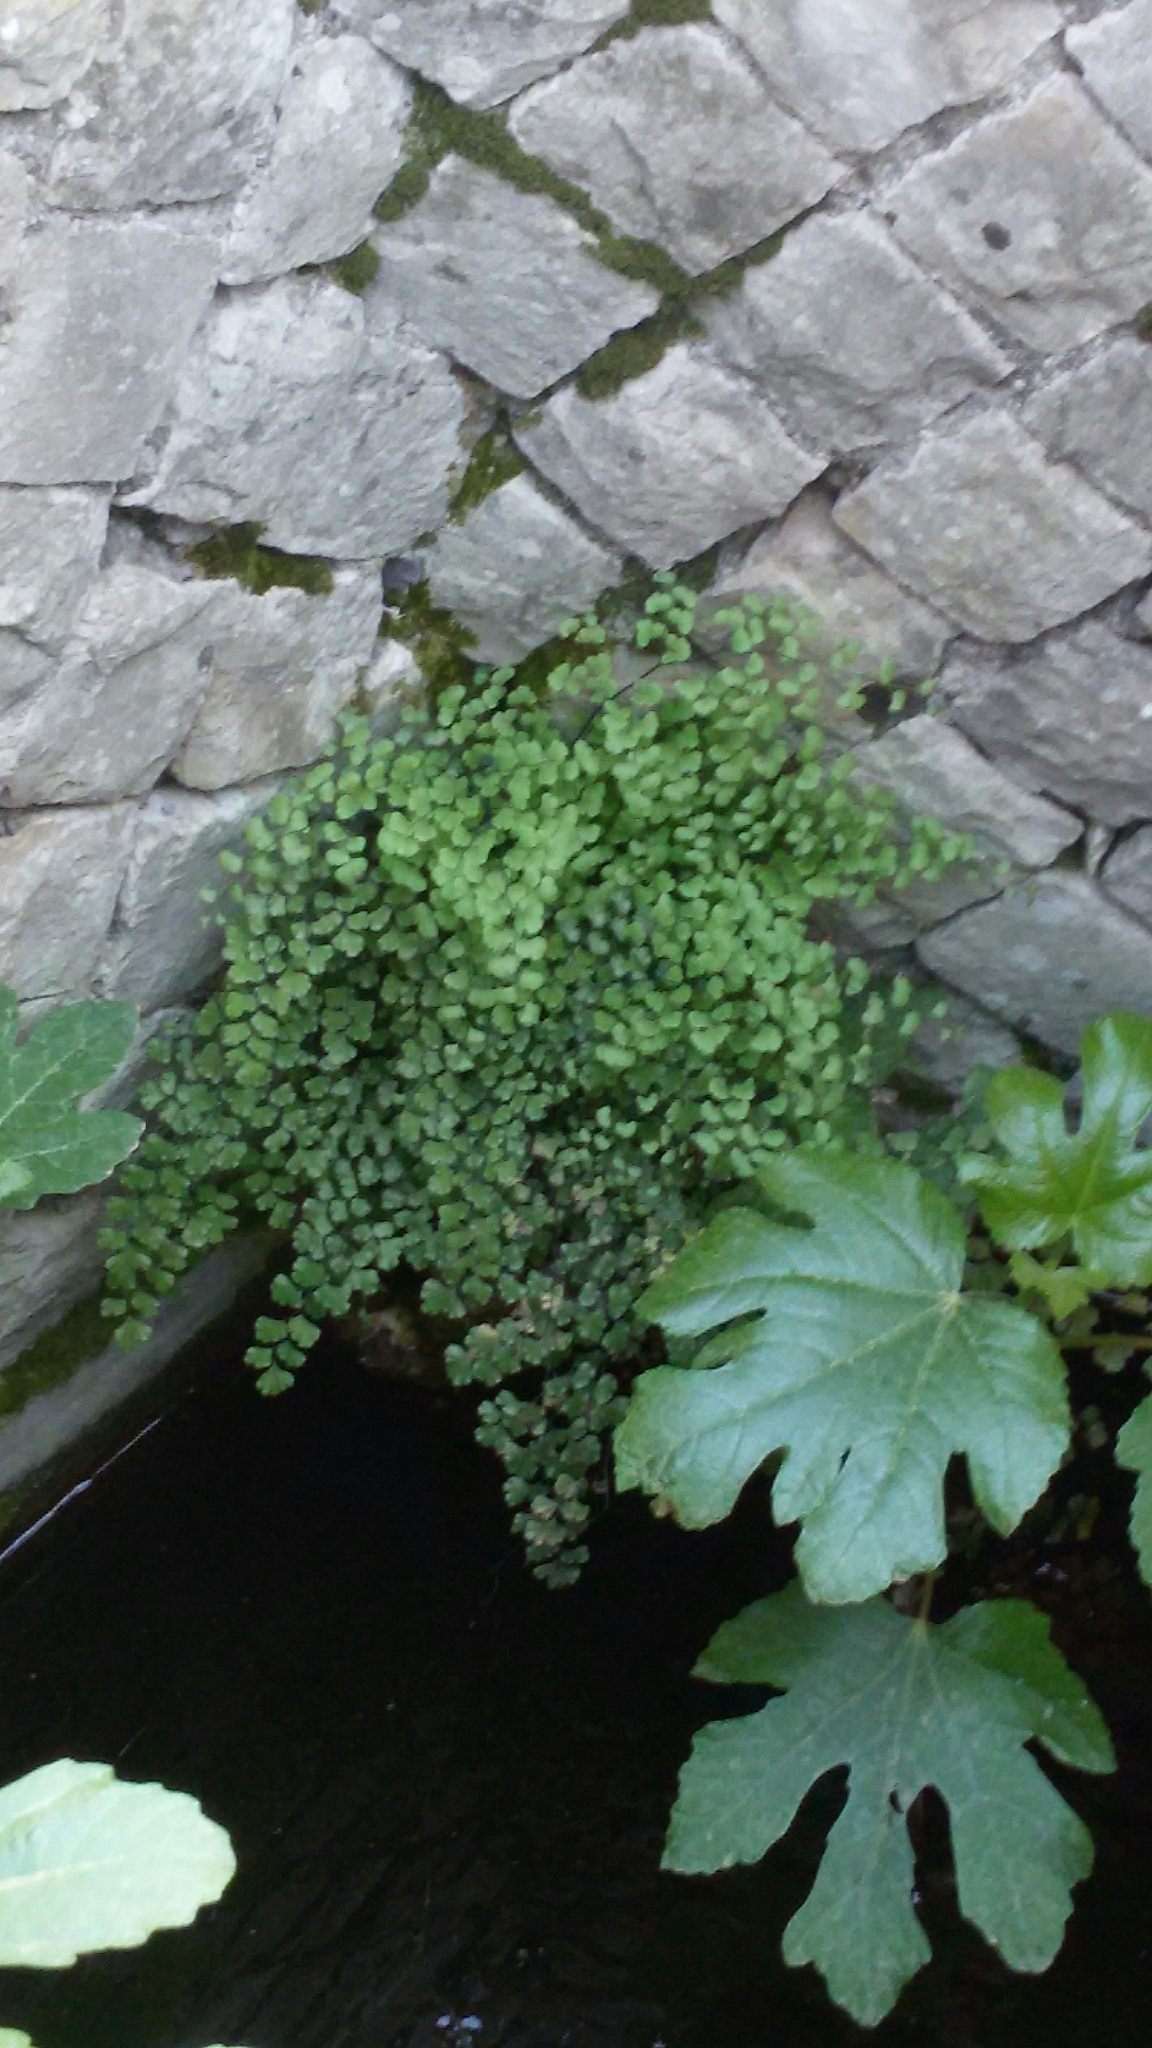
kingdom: Plantae
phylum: Tracheophyta
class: Polypodiopsida
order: Polypodiales
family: Pteridaceae
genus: Adiantum
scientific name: Adiantum capillus-veneris
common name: Maidenhair fern
